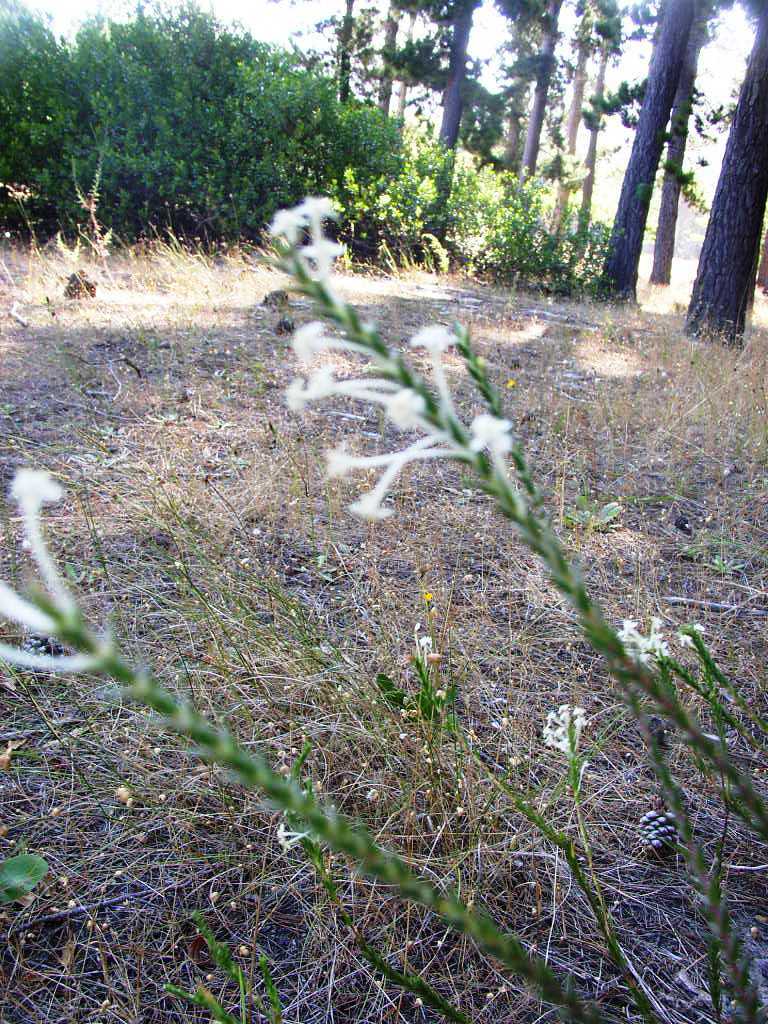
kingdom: Plantae
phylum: Tracheophyta
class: Magnoliopsida
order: Malvales
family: Thymelaeaceae
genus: Struthiola
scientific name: Struthiola ciliata
